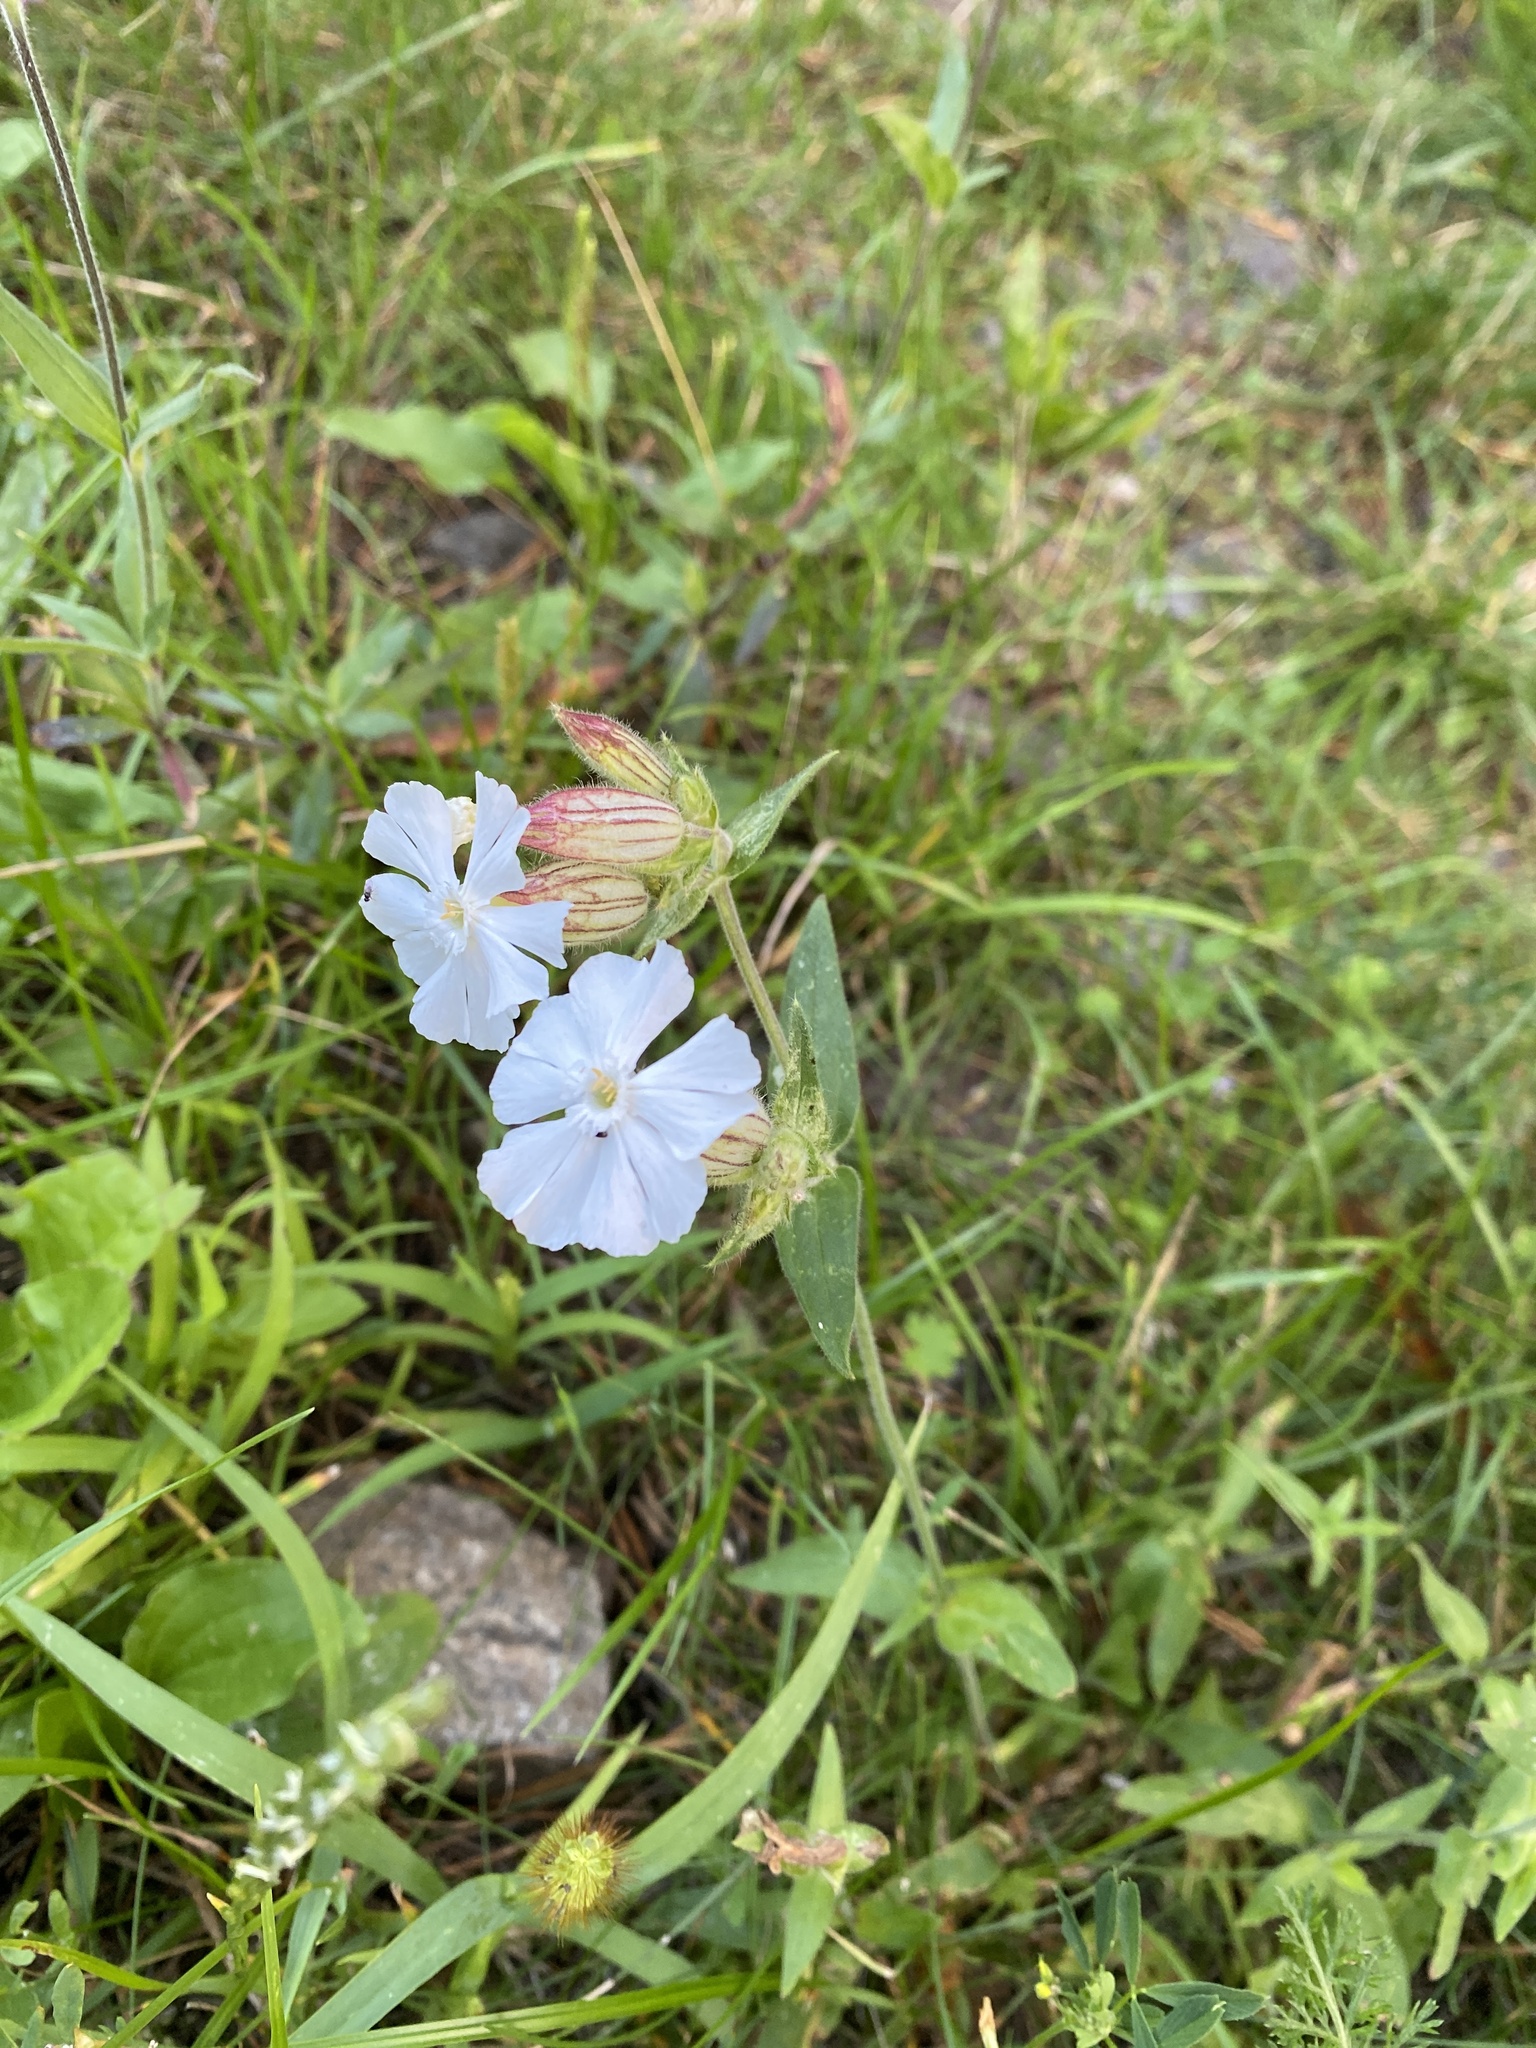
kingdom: Plantae
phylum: Tracheophyta
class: Magnoliopsida
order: Caryophyllales
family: Caryophyllaceae
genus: Silene
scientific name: Silene latifolia
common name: White campion
